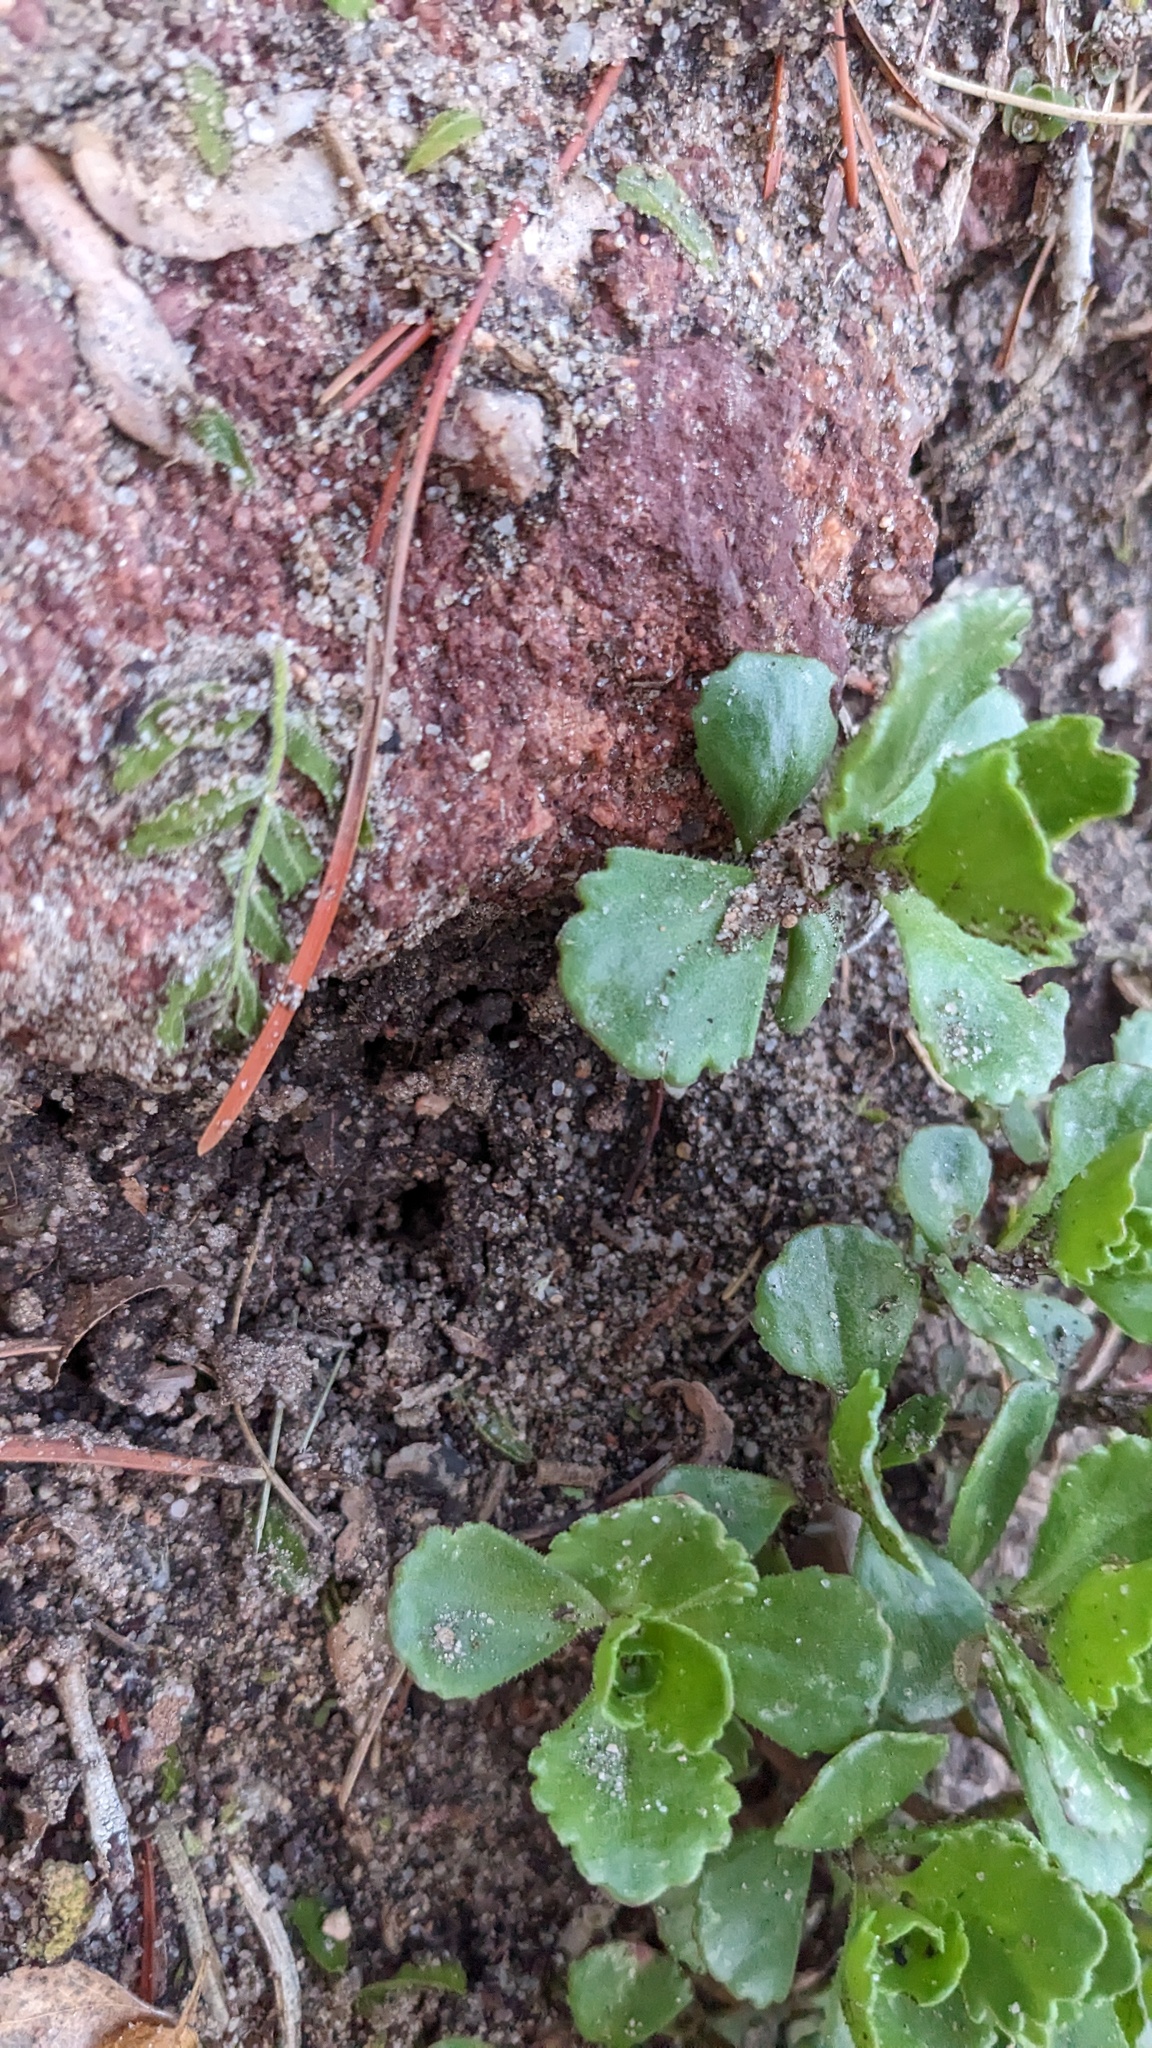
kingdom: Plantae
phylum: Tracheophyta
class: Magnoliopsida
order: Saxifragales
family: Crassulaceae
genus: Phedimus
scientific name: Phedimus spurius
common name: Caucasian stonecrop
